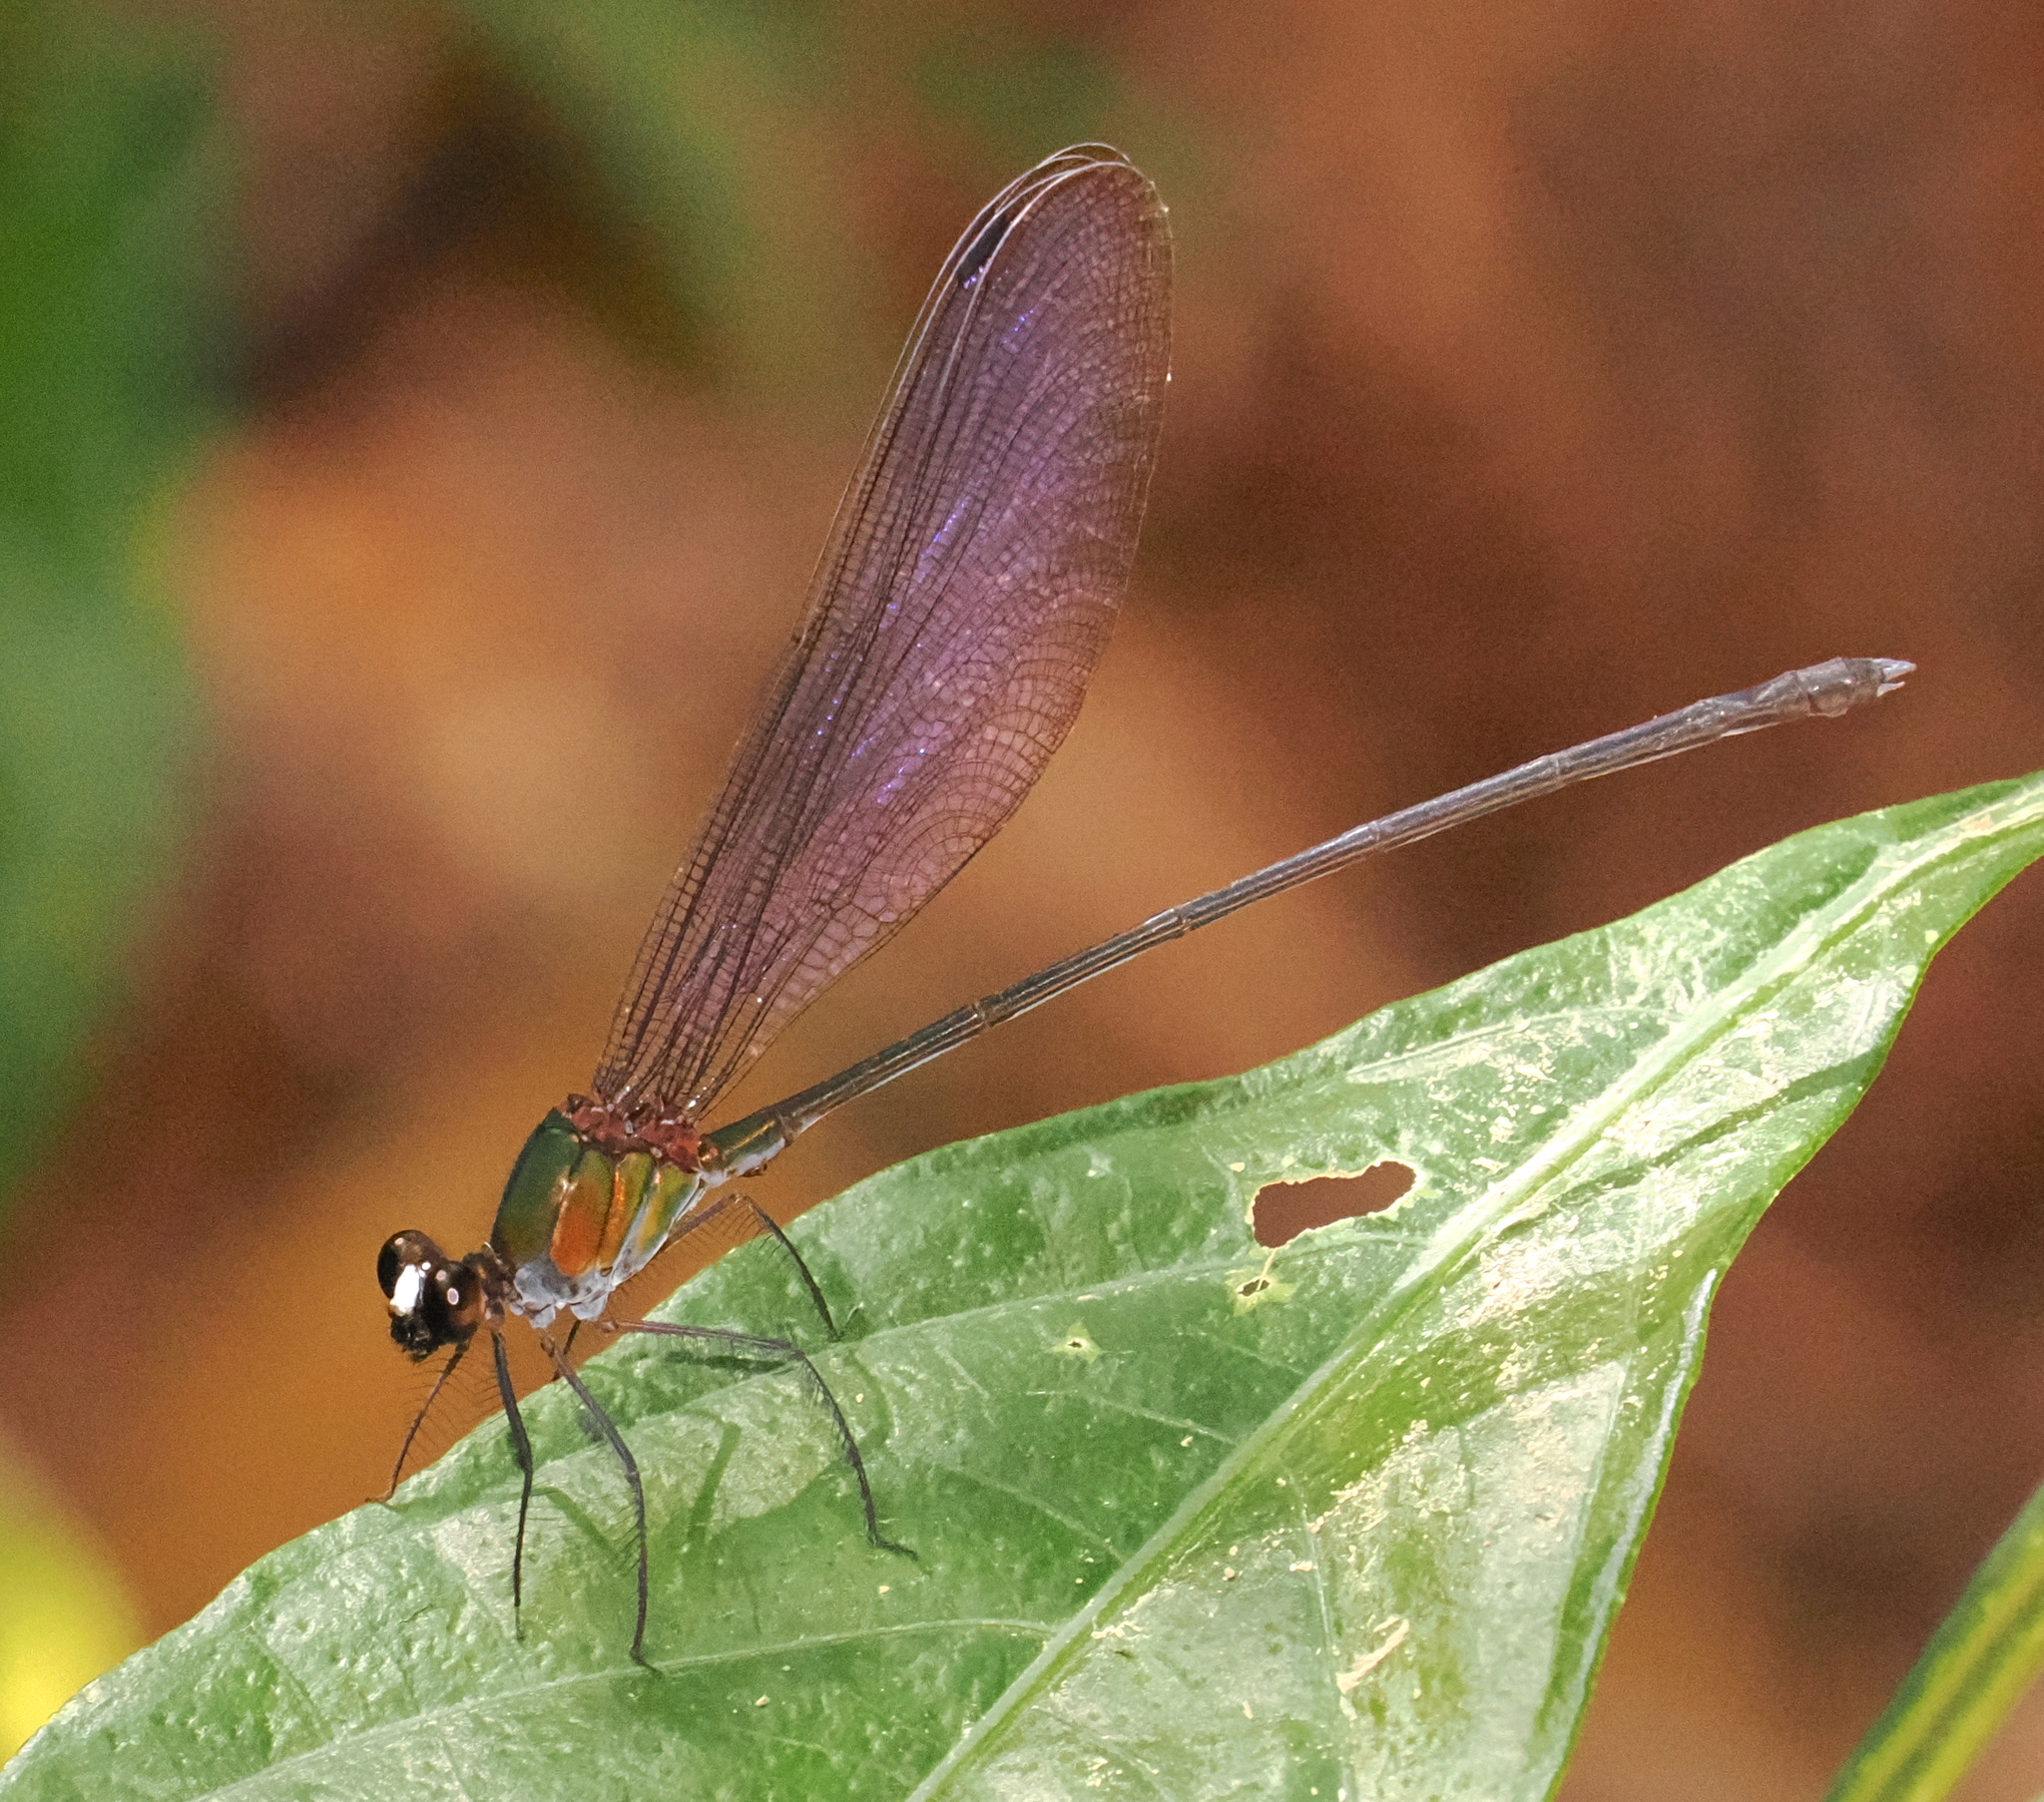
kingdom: Animalia
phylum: Arthropoda
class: Insecta
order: Odonata
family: Calopterygidae
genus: Echo
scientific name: Echo modesta
